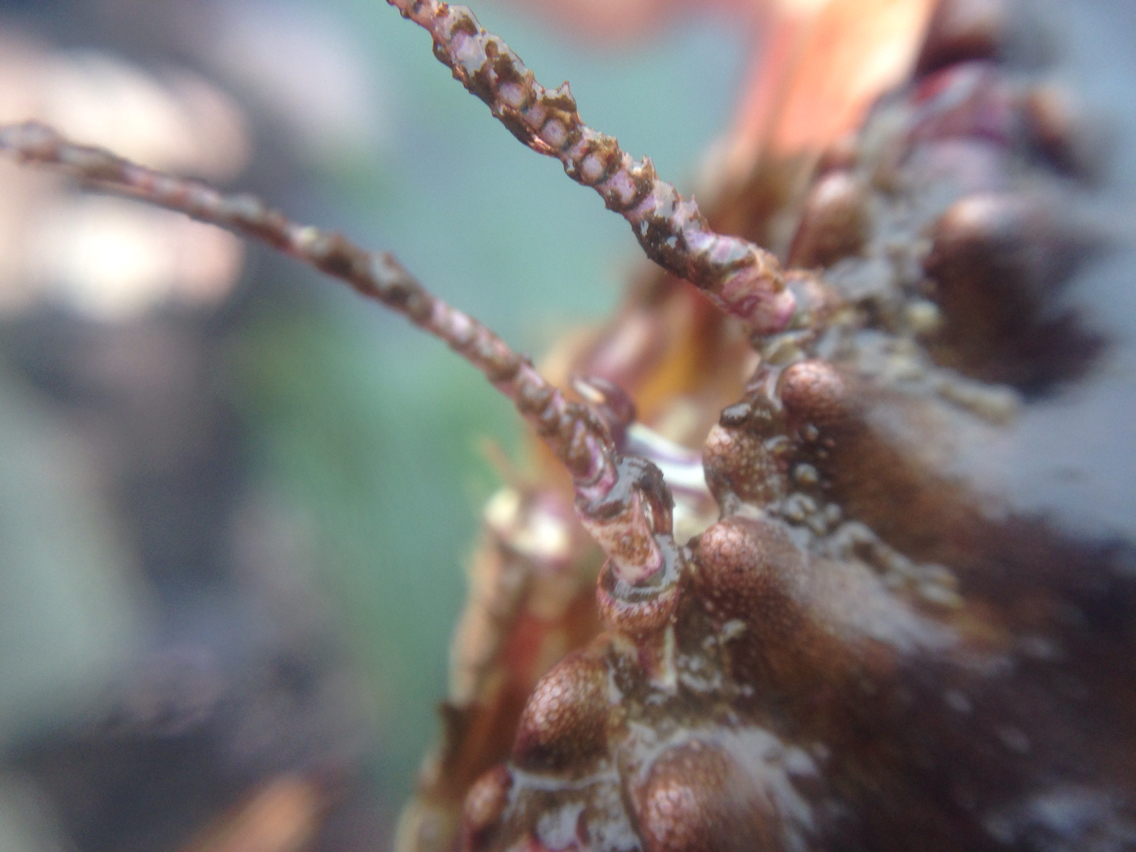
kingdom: Animalia
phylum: Arthropoda
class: Malacostraca
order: Decapoda
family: Cancridae
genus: Romaleon
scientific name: Romaleon antennarium
